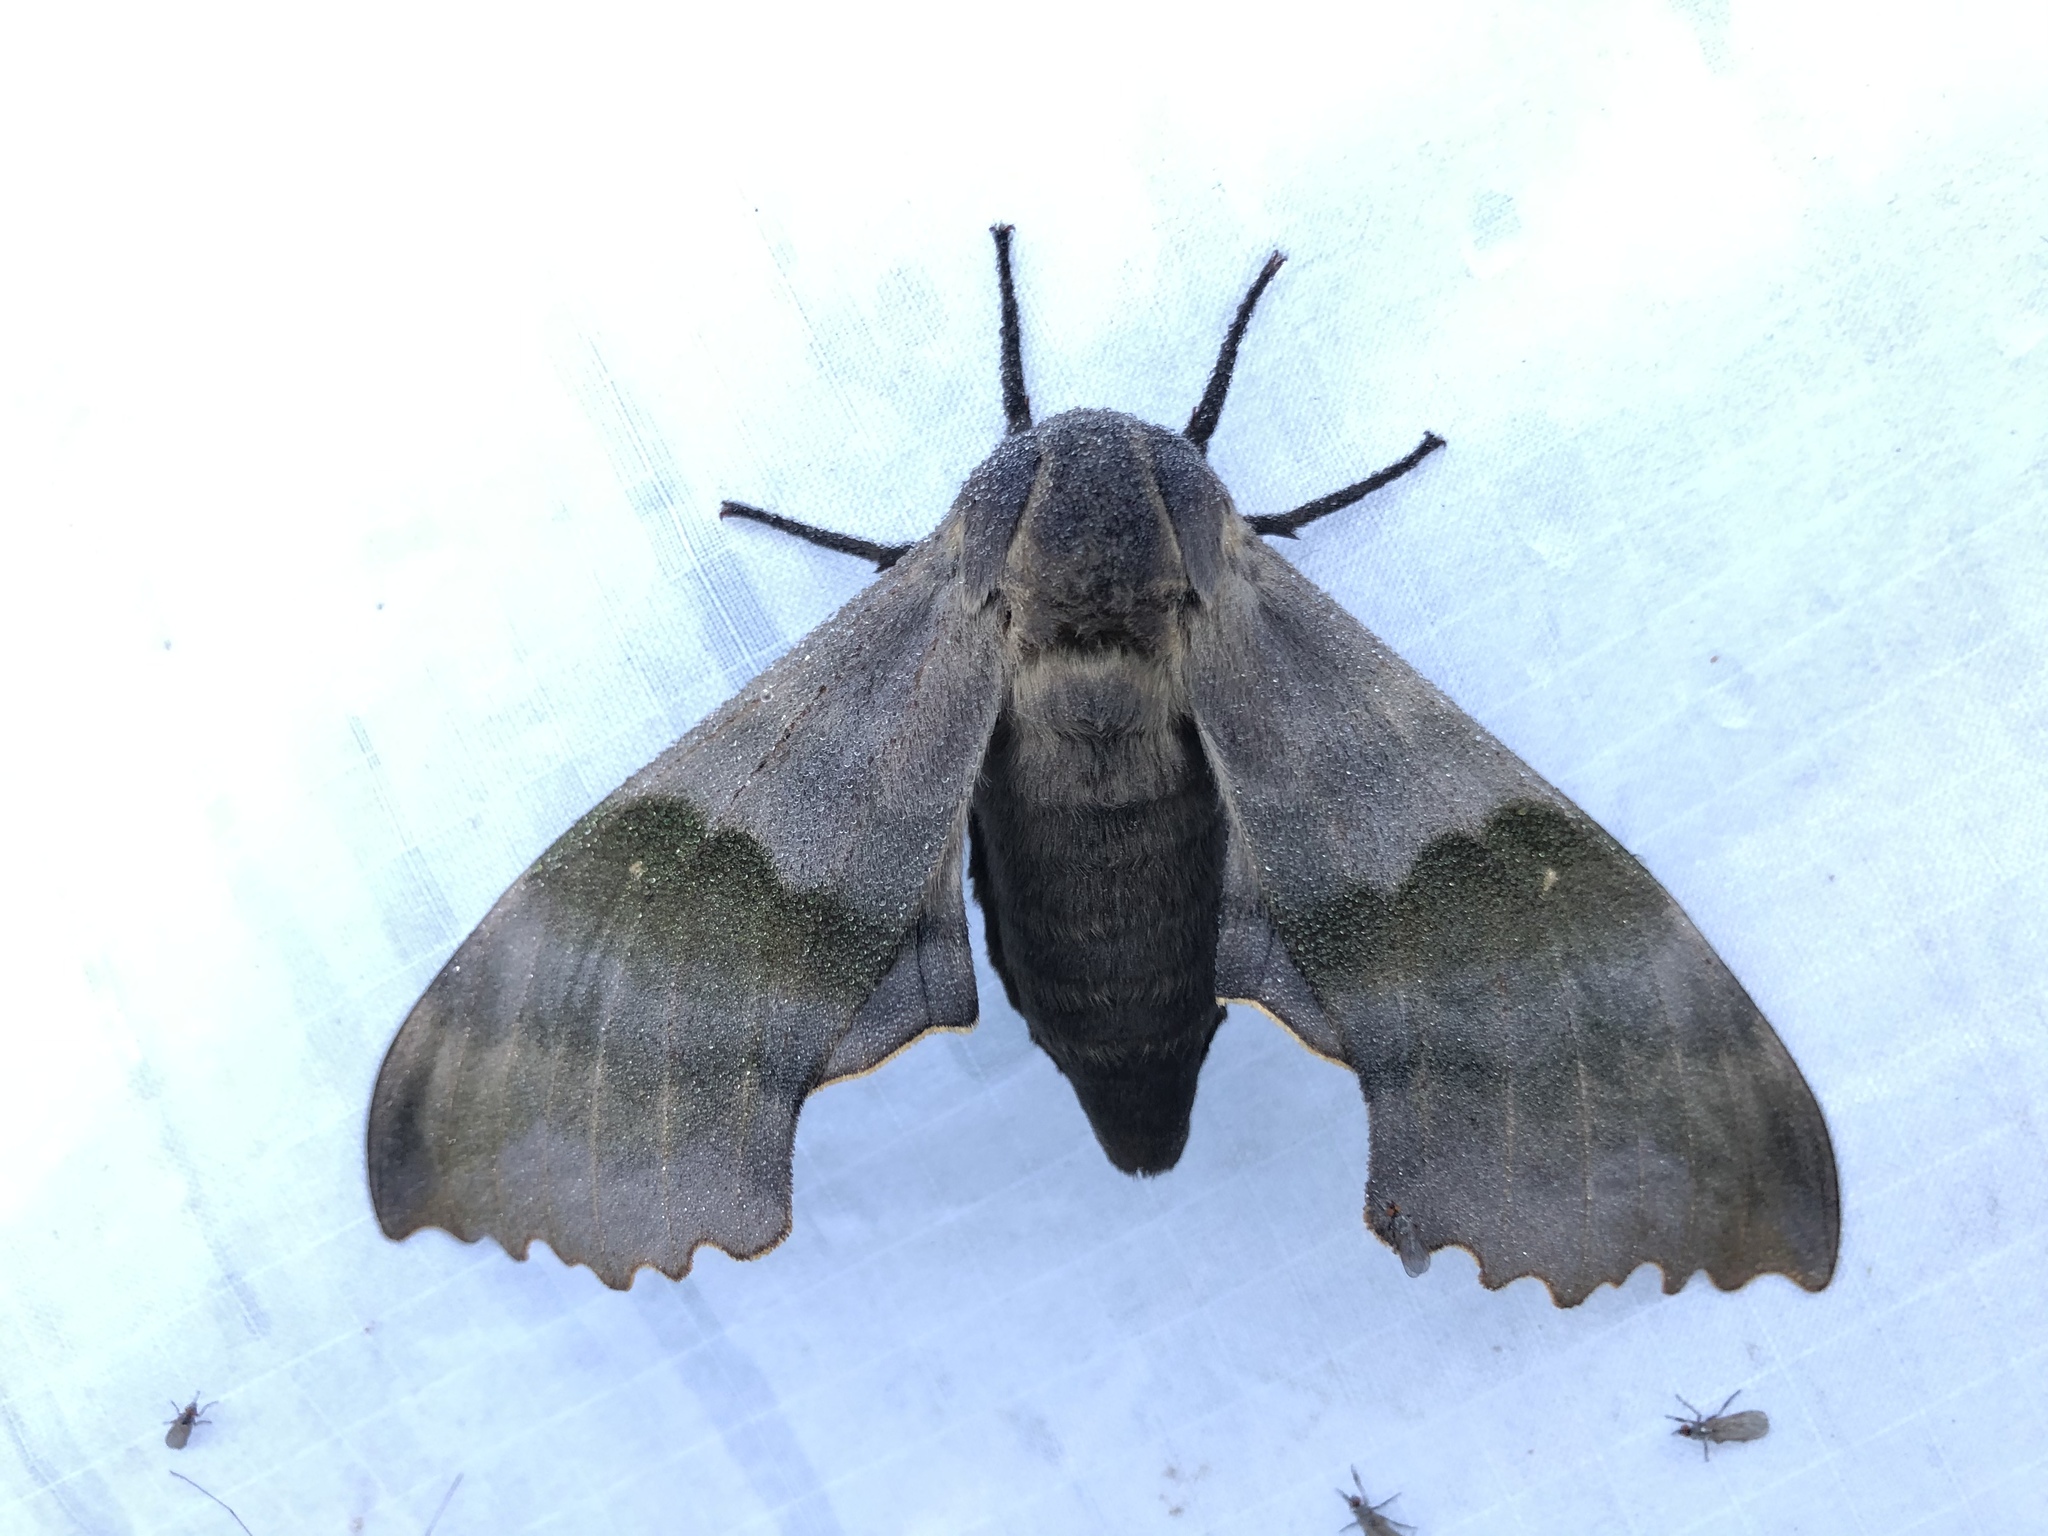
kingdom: Animalia
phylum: Arthropoda
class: Insecta
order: Lepidoptera
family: Sphingidae
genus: Pachysphinx
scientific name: Pachysphinx modesta
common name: Big poplar sphinx
